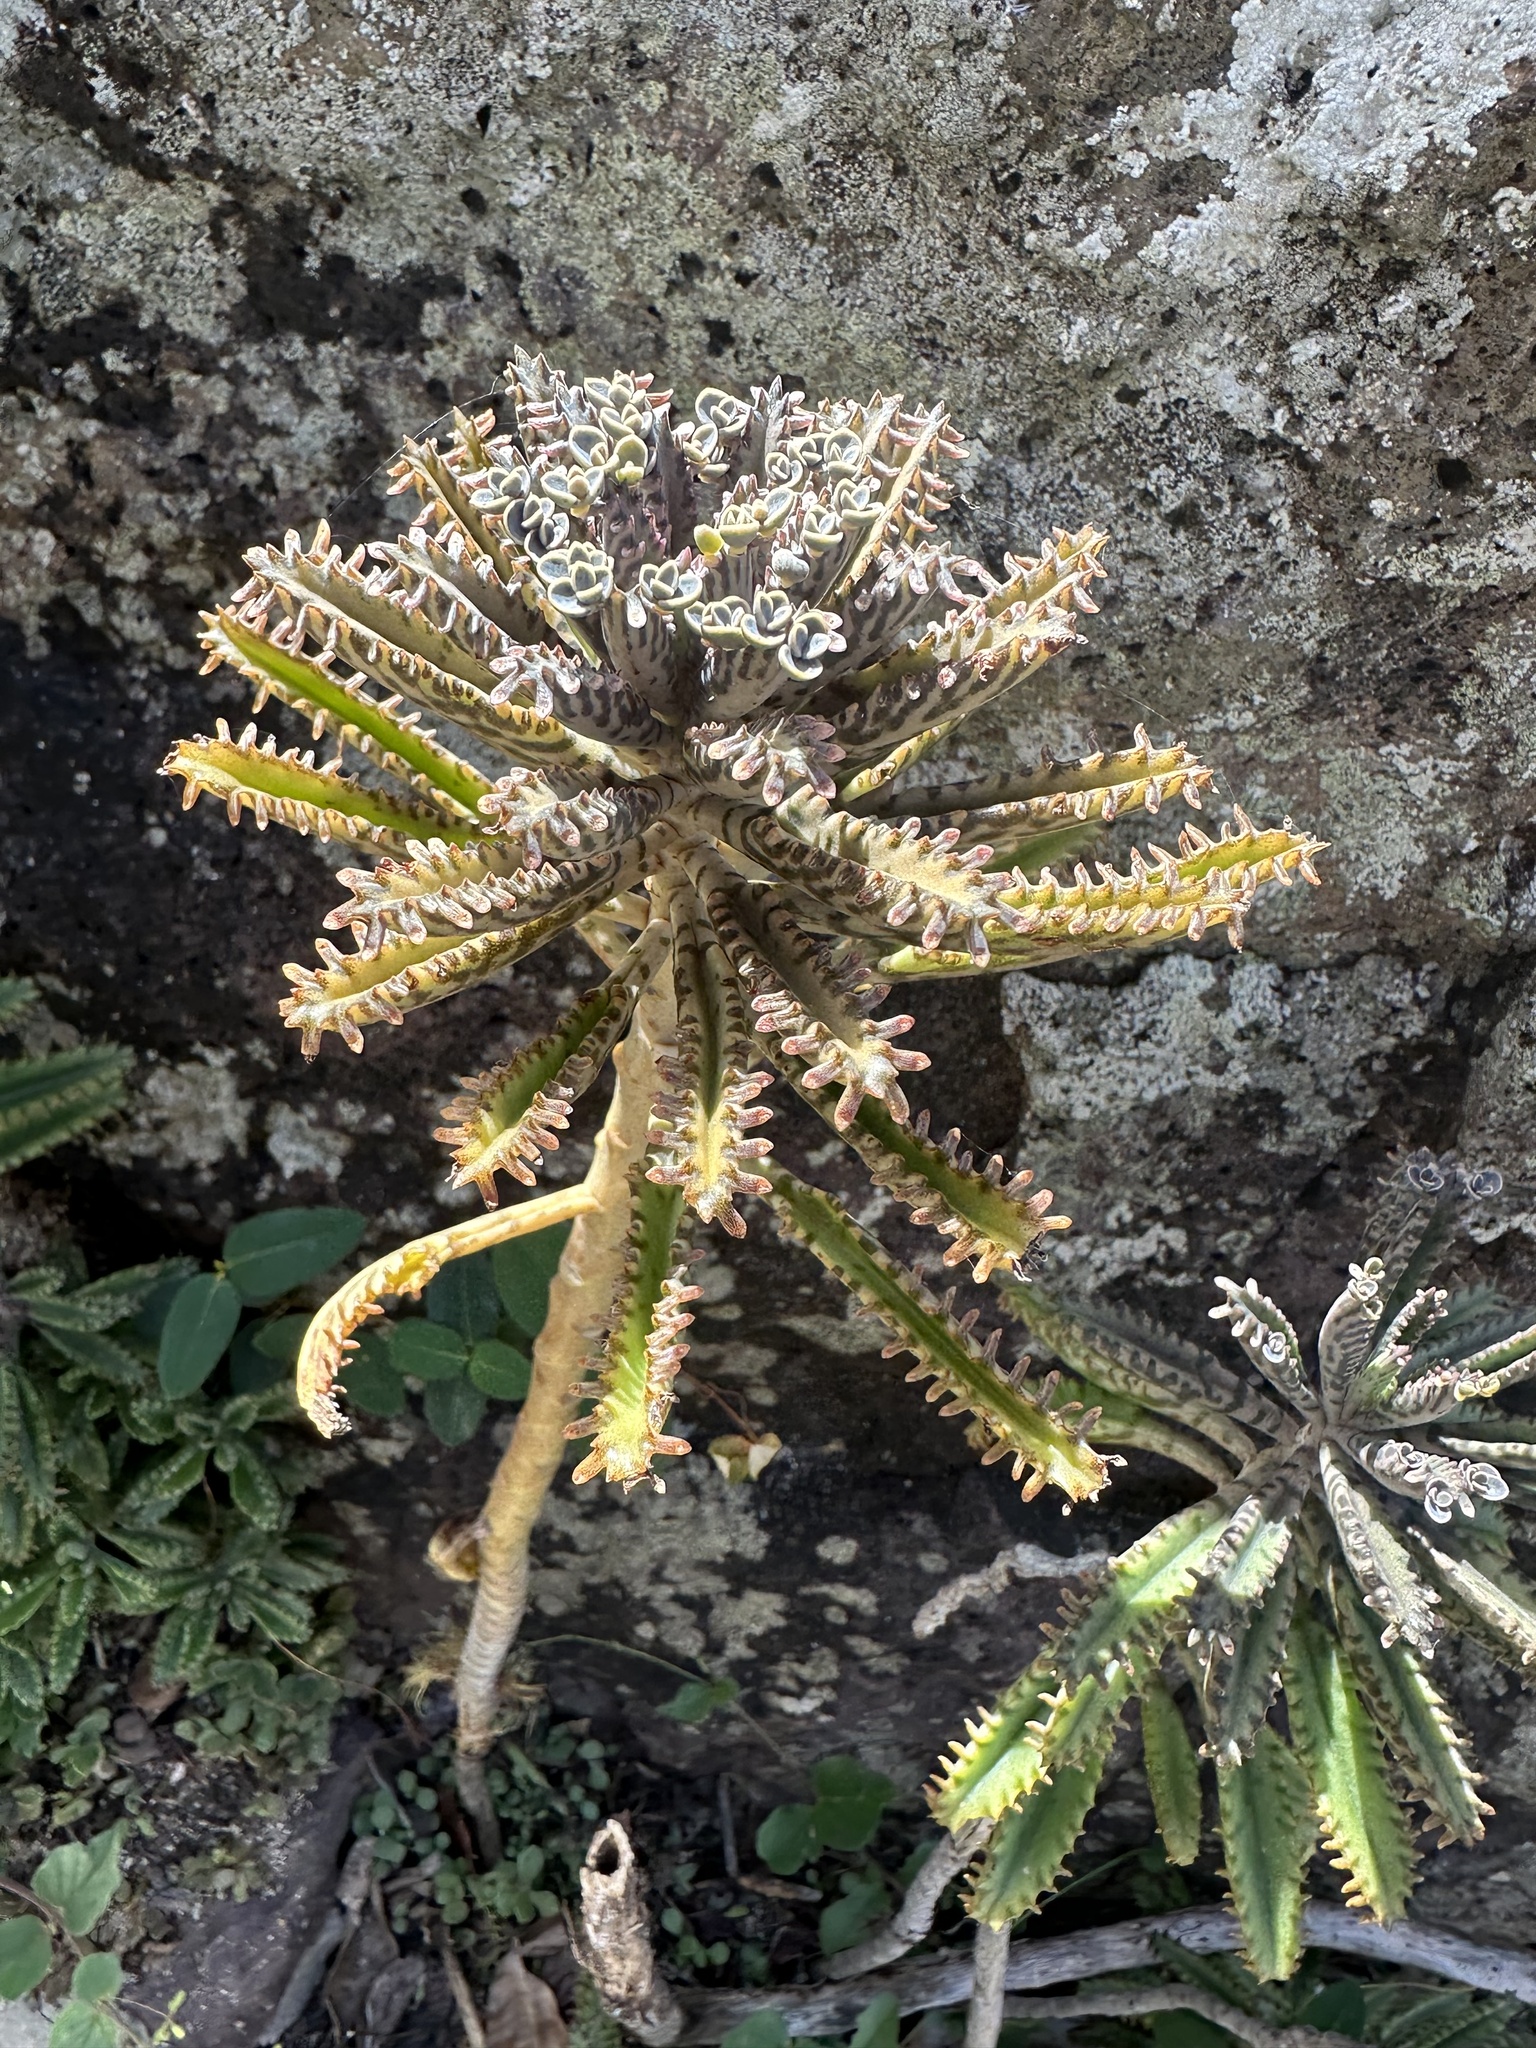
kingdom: Plantae
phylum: Tracheophyta
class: Magnoliopsida
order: Saxifragales
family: Crassulaceae
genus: Kalanchoe
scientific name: Kalanchoe houghtonii
